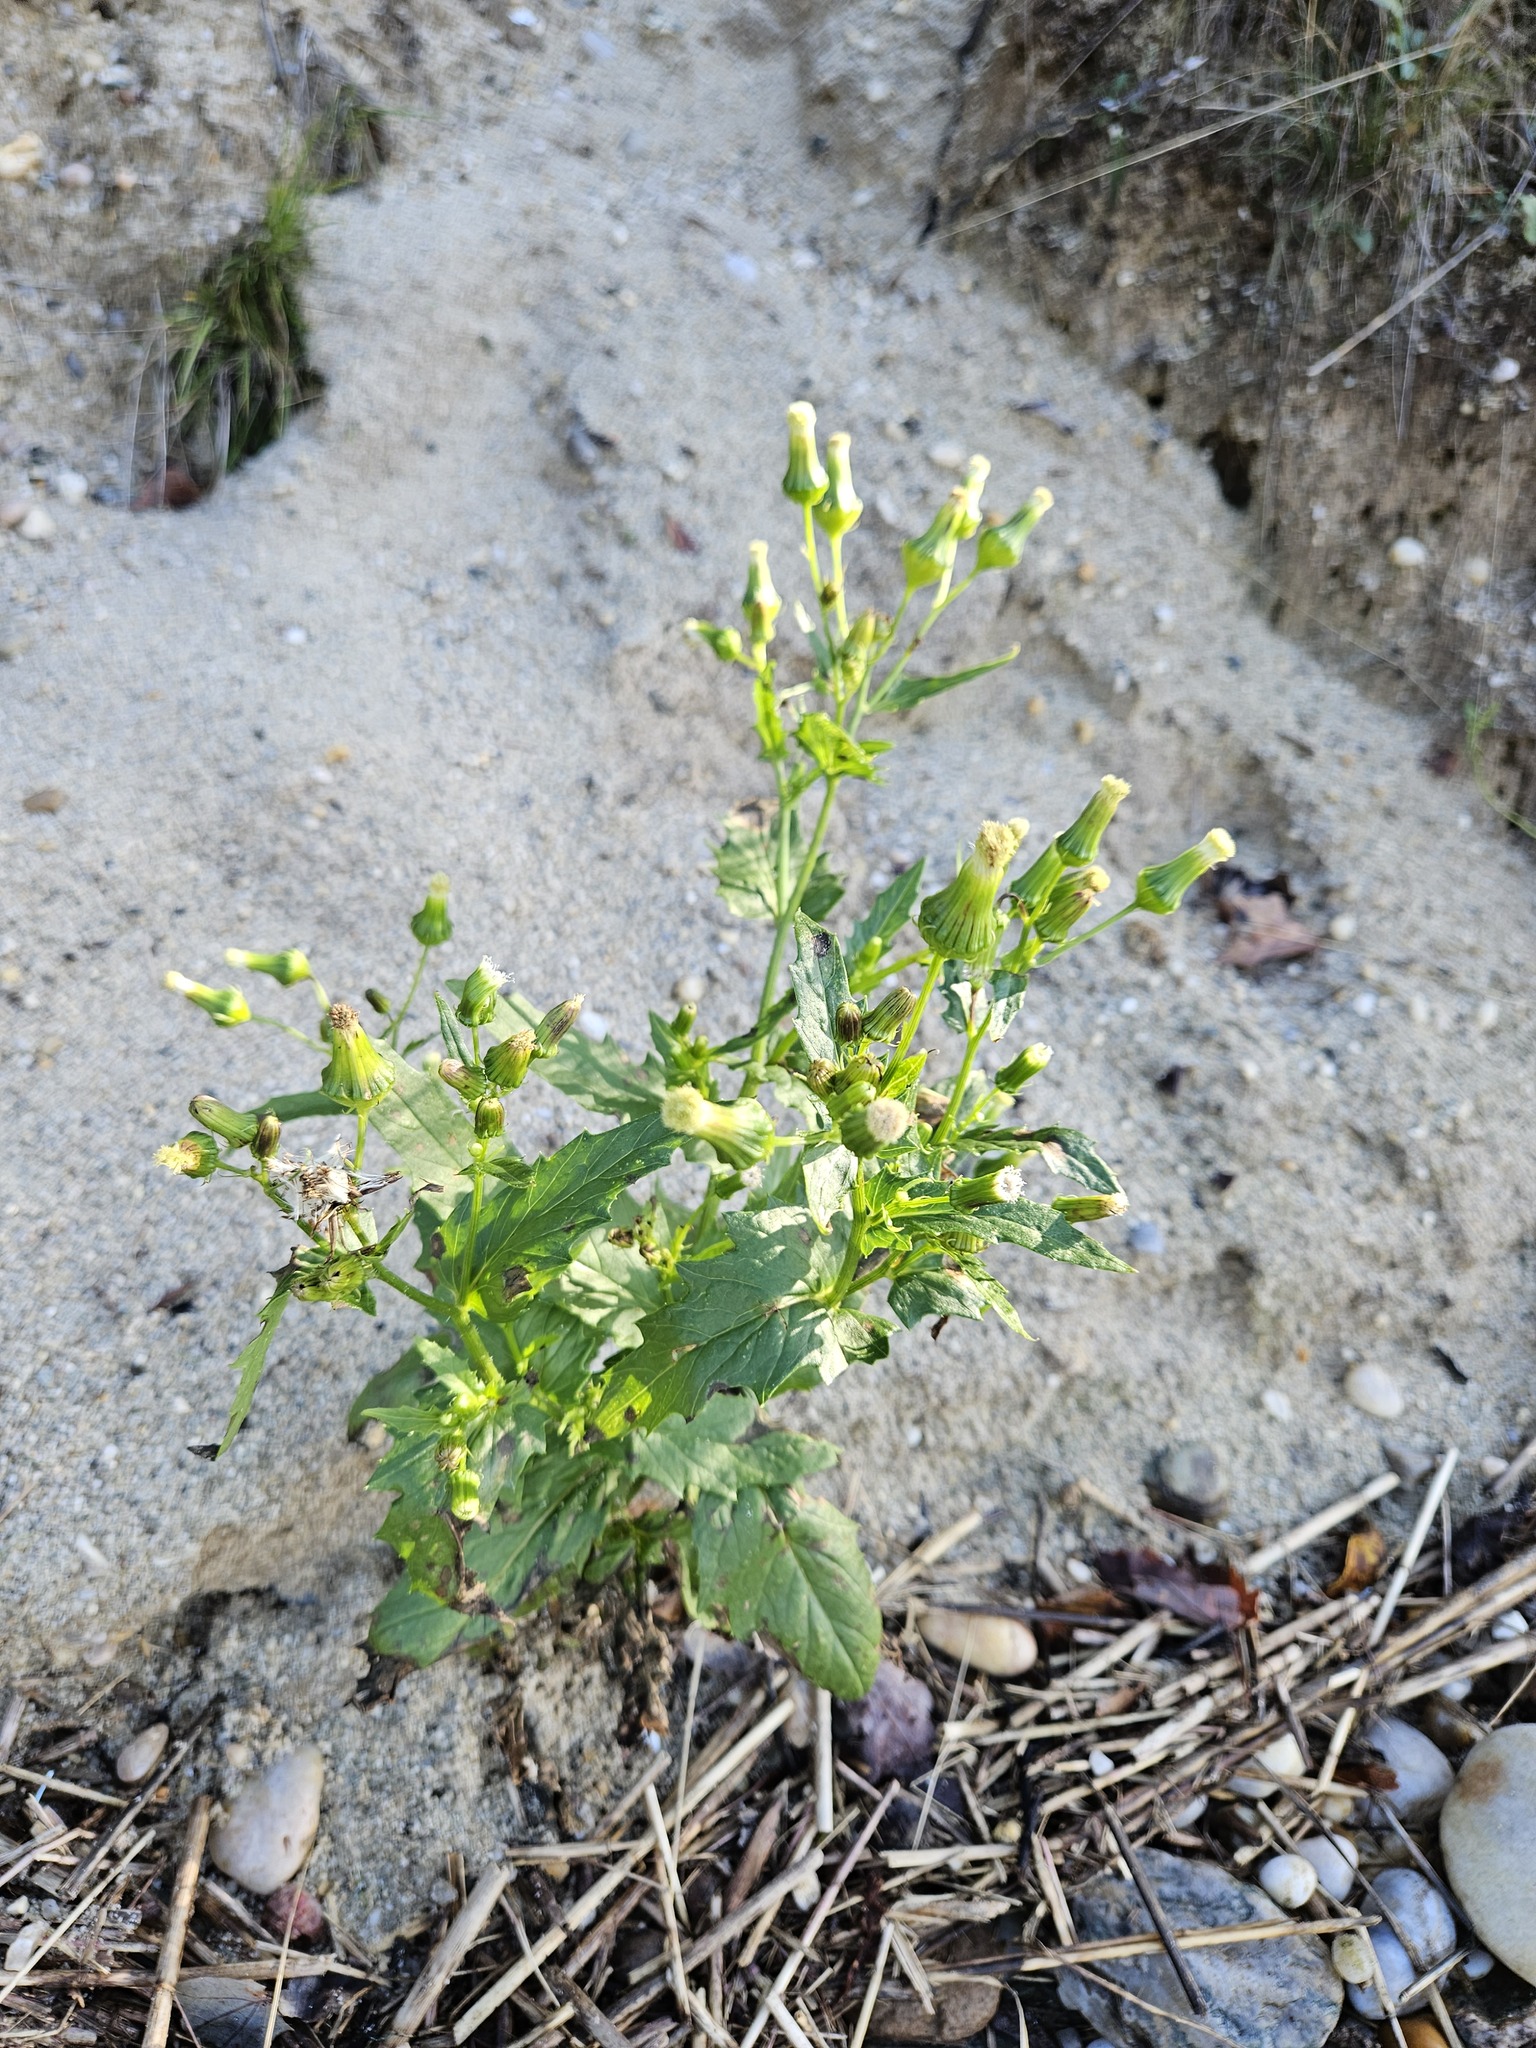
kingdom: Plantae
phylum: Tracheophyta
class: Magnoliopsida
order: Asterales
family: Asteraceae
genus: Erechtites
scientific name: Erechtites hieraciifolius
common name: American burnweed
